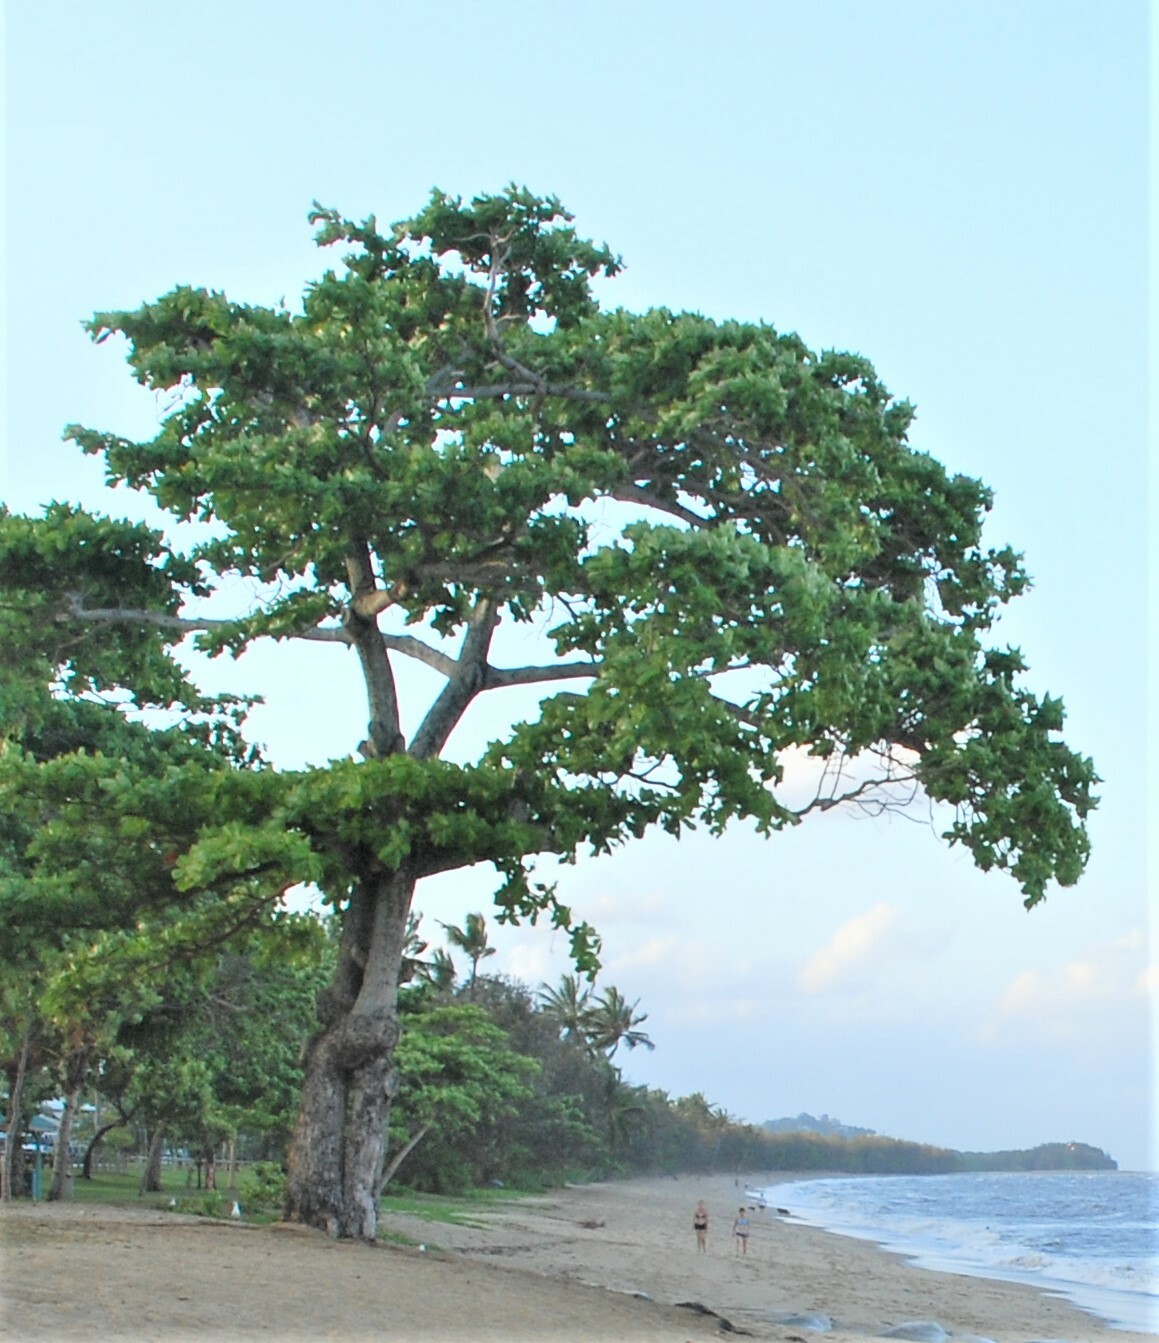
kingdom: Plantae
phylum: Tracheophyta
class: Magnoliopsida
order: Myrtales
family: Combretaceae
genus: Terminalia
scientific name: Terminalia catappa
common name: Tropical almond
